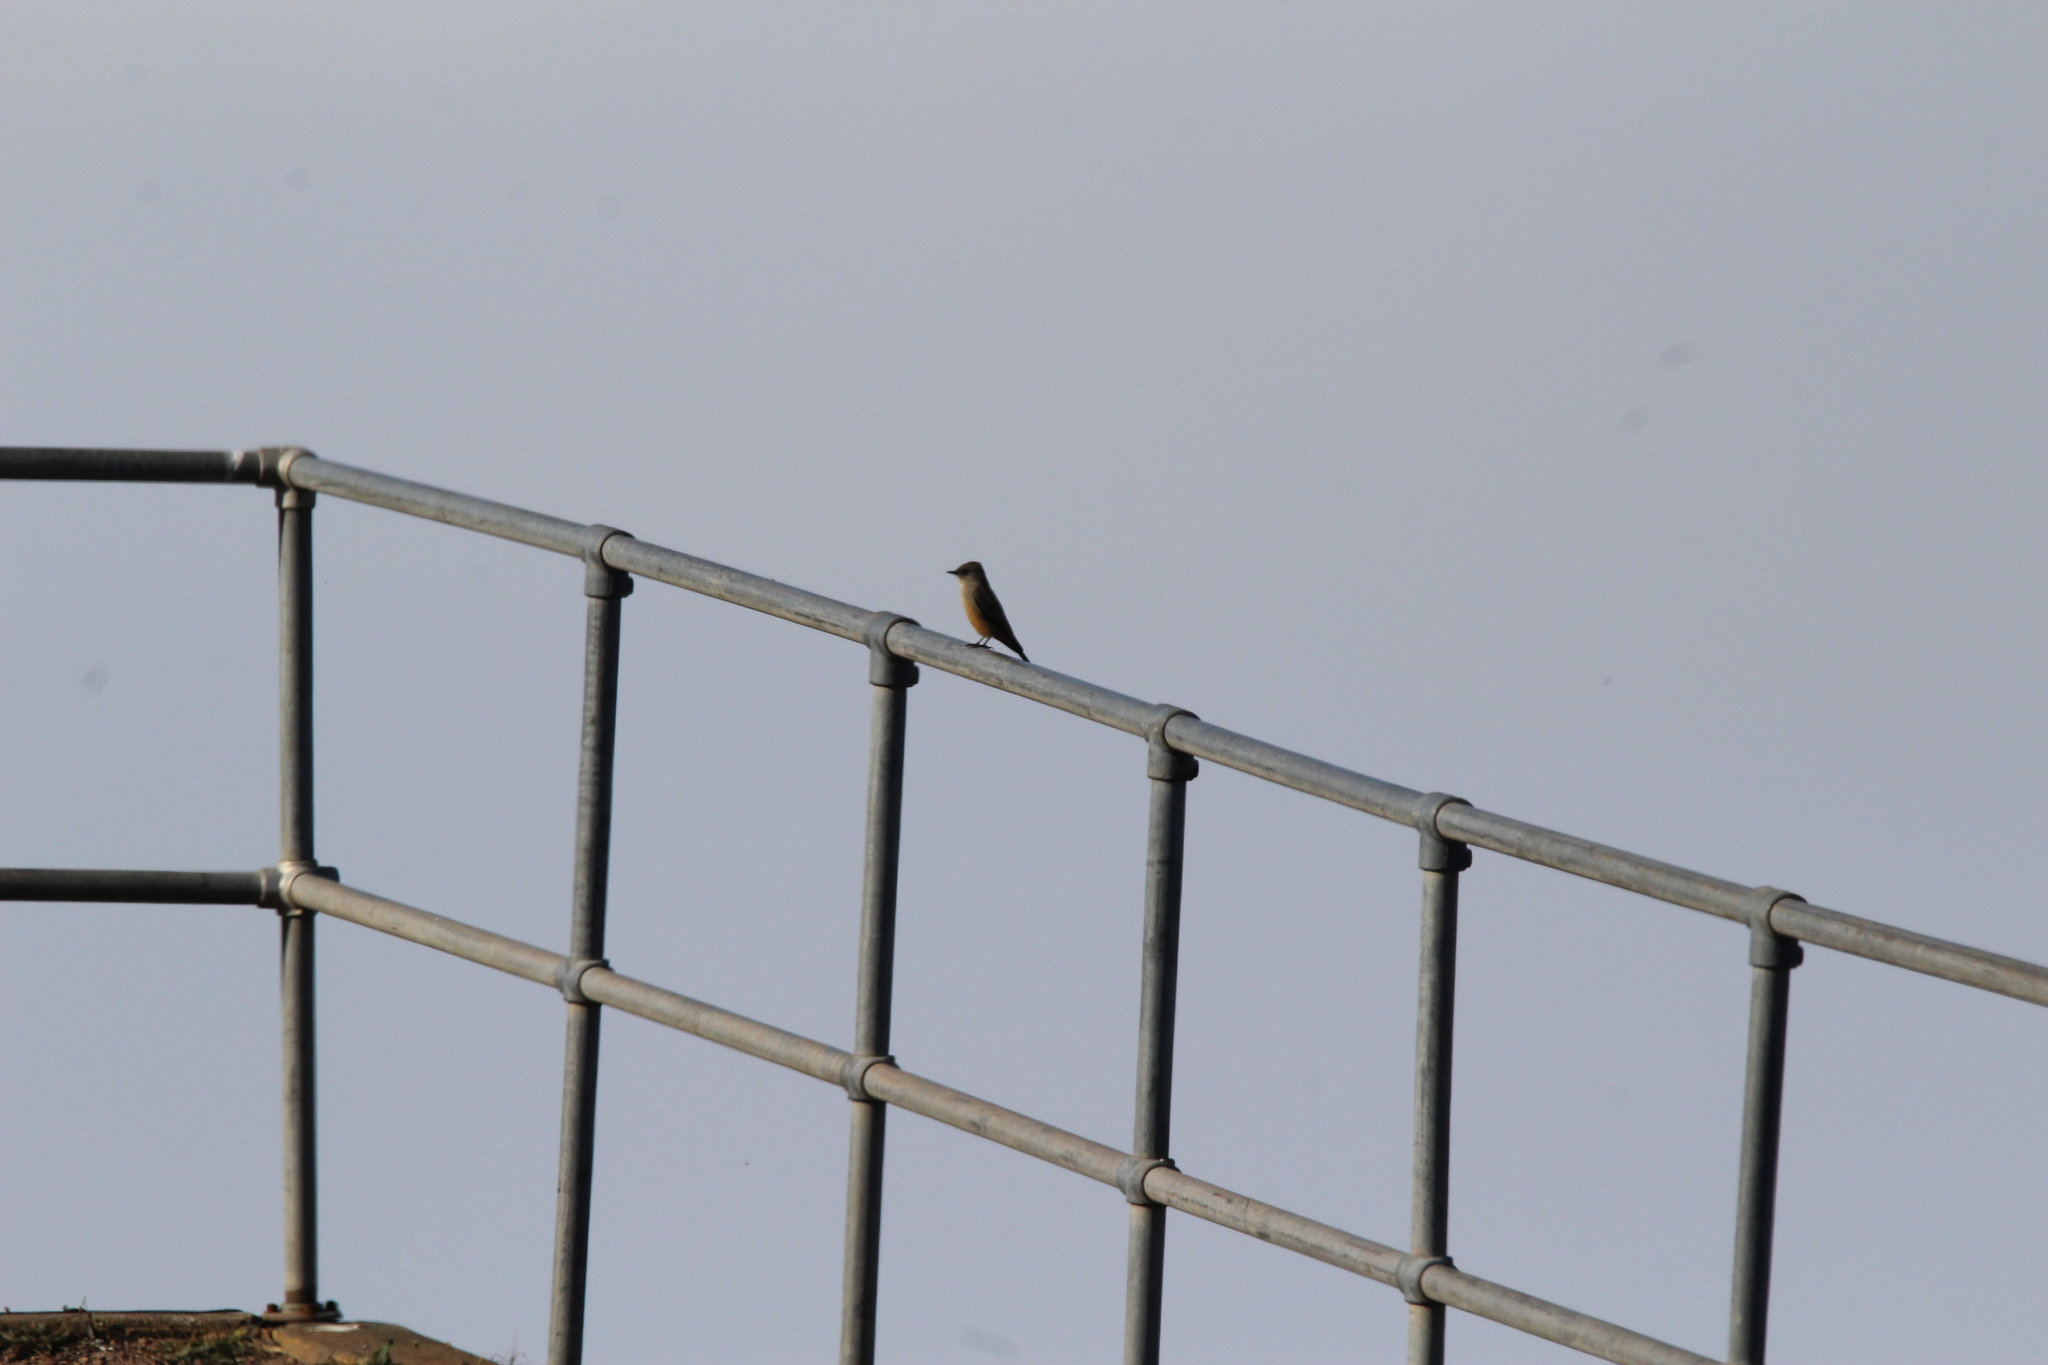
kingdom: Animalia
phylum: Chordata
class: Aves
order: Passeriformes
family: Tyrannidae
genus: Sayornis
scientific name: Sayornis saya
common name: Say's phoebe
